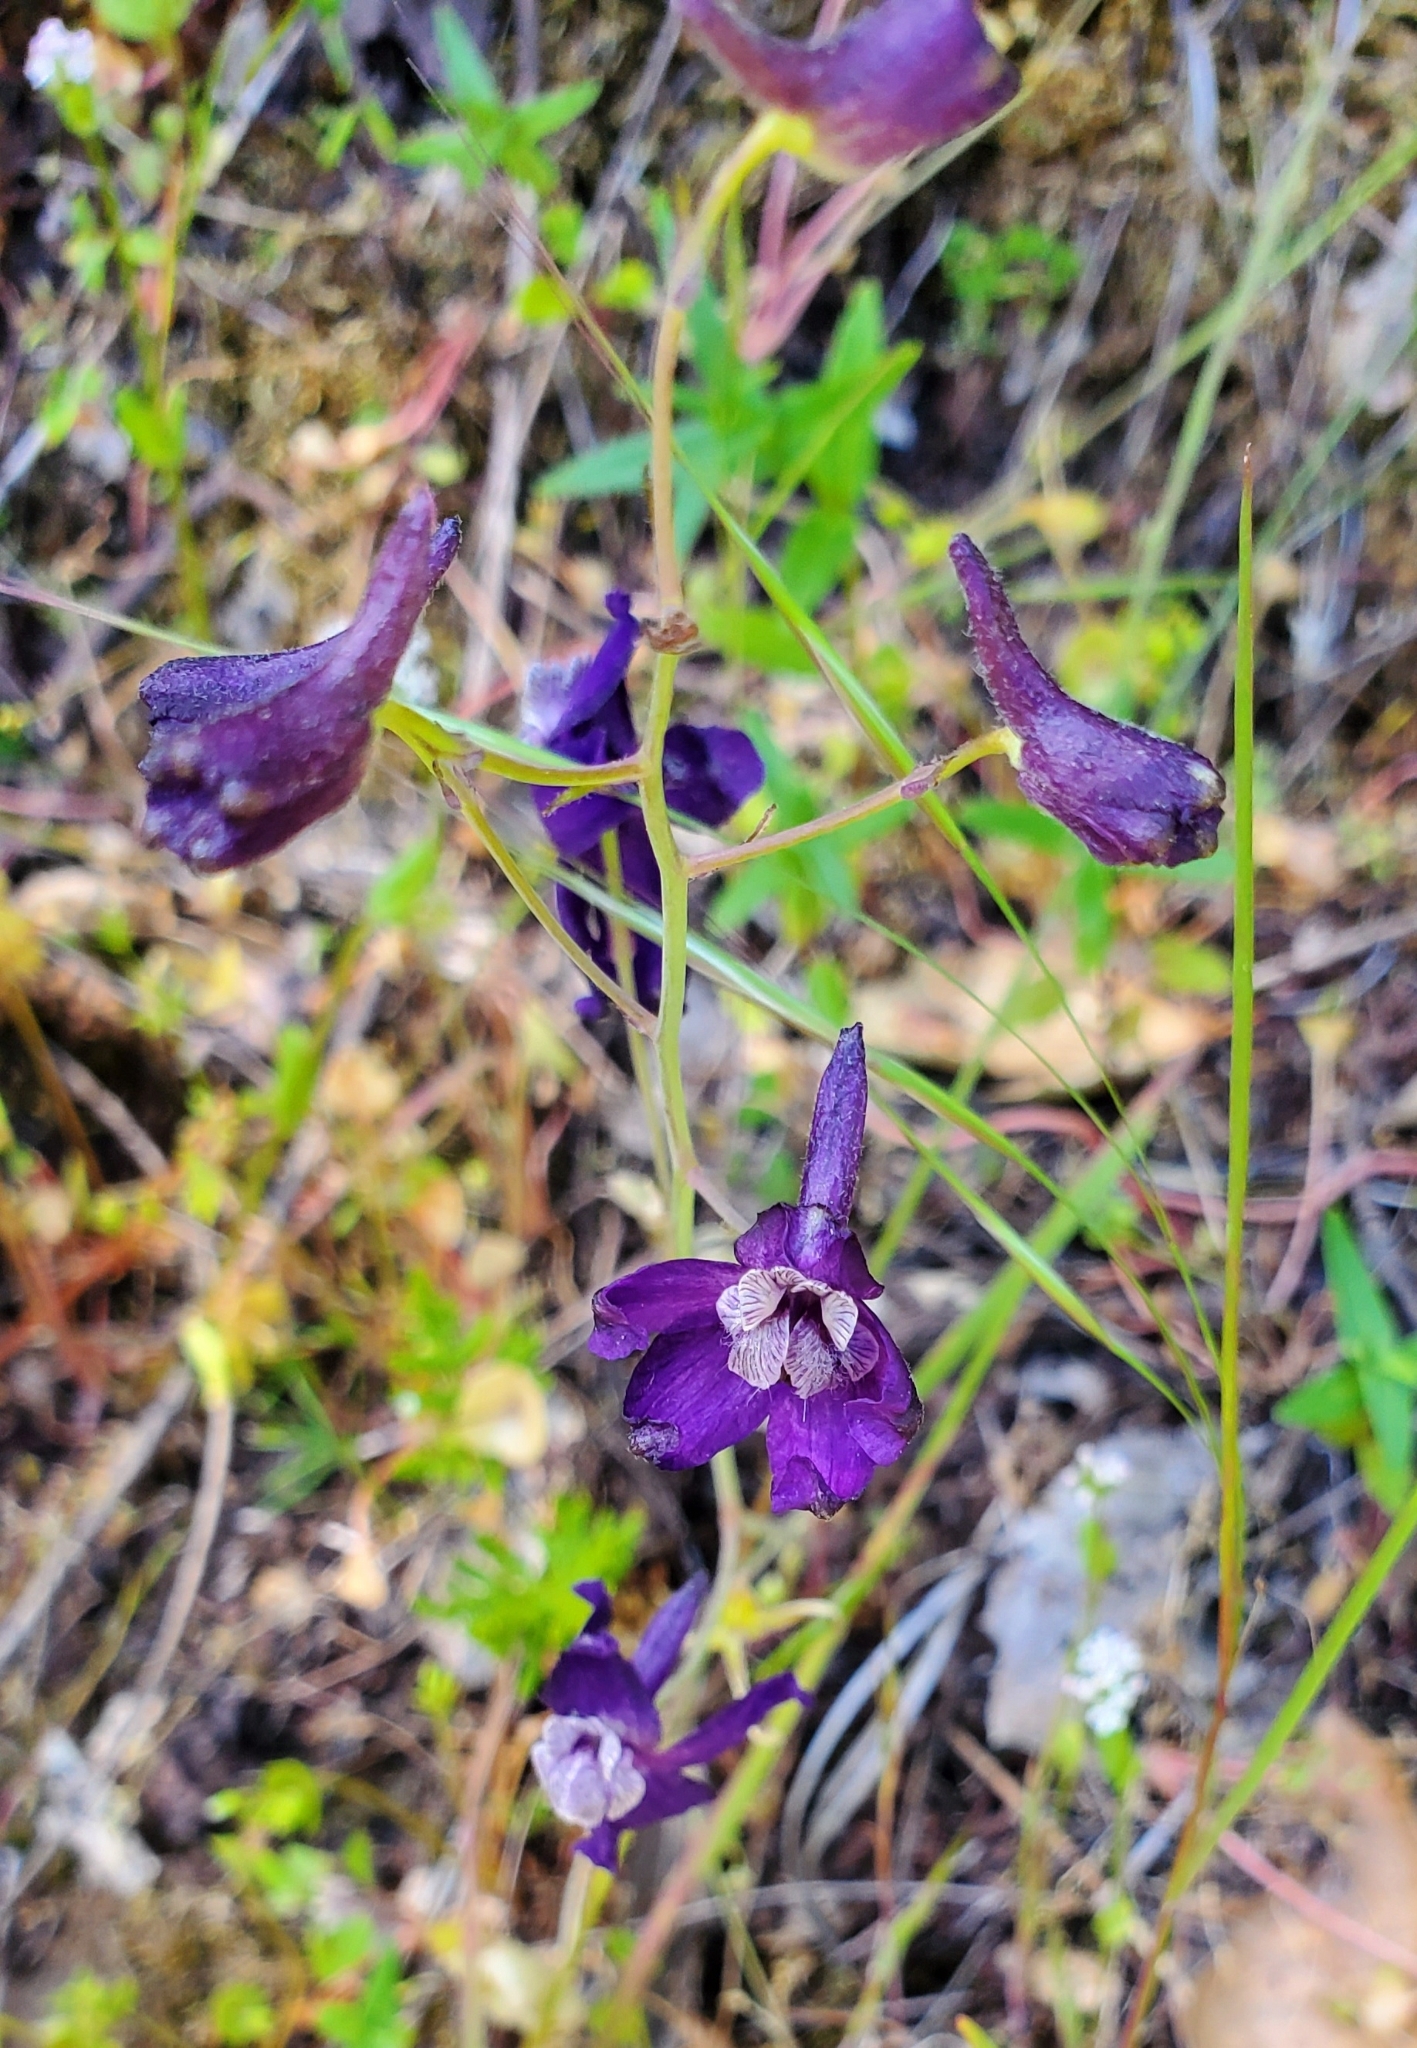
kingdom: Plantae
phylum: Tracheophyta
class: Magnoliopsida
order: Ranunculales
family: Ranunculaceae
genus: Delphinium
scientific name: Delphinium patens
